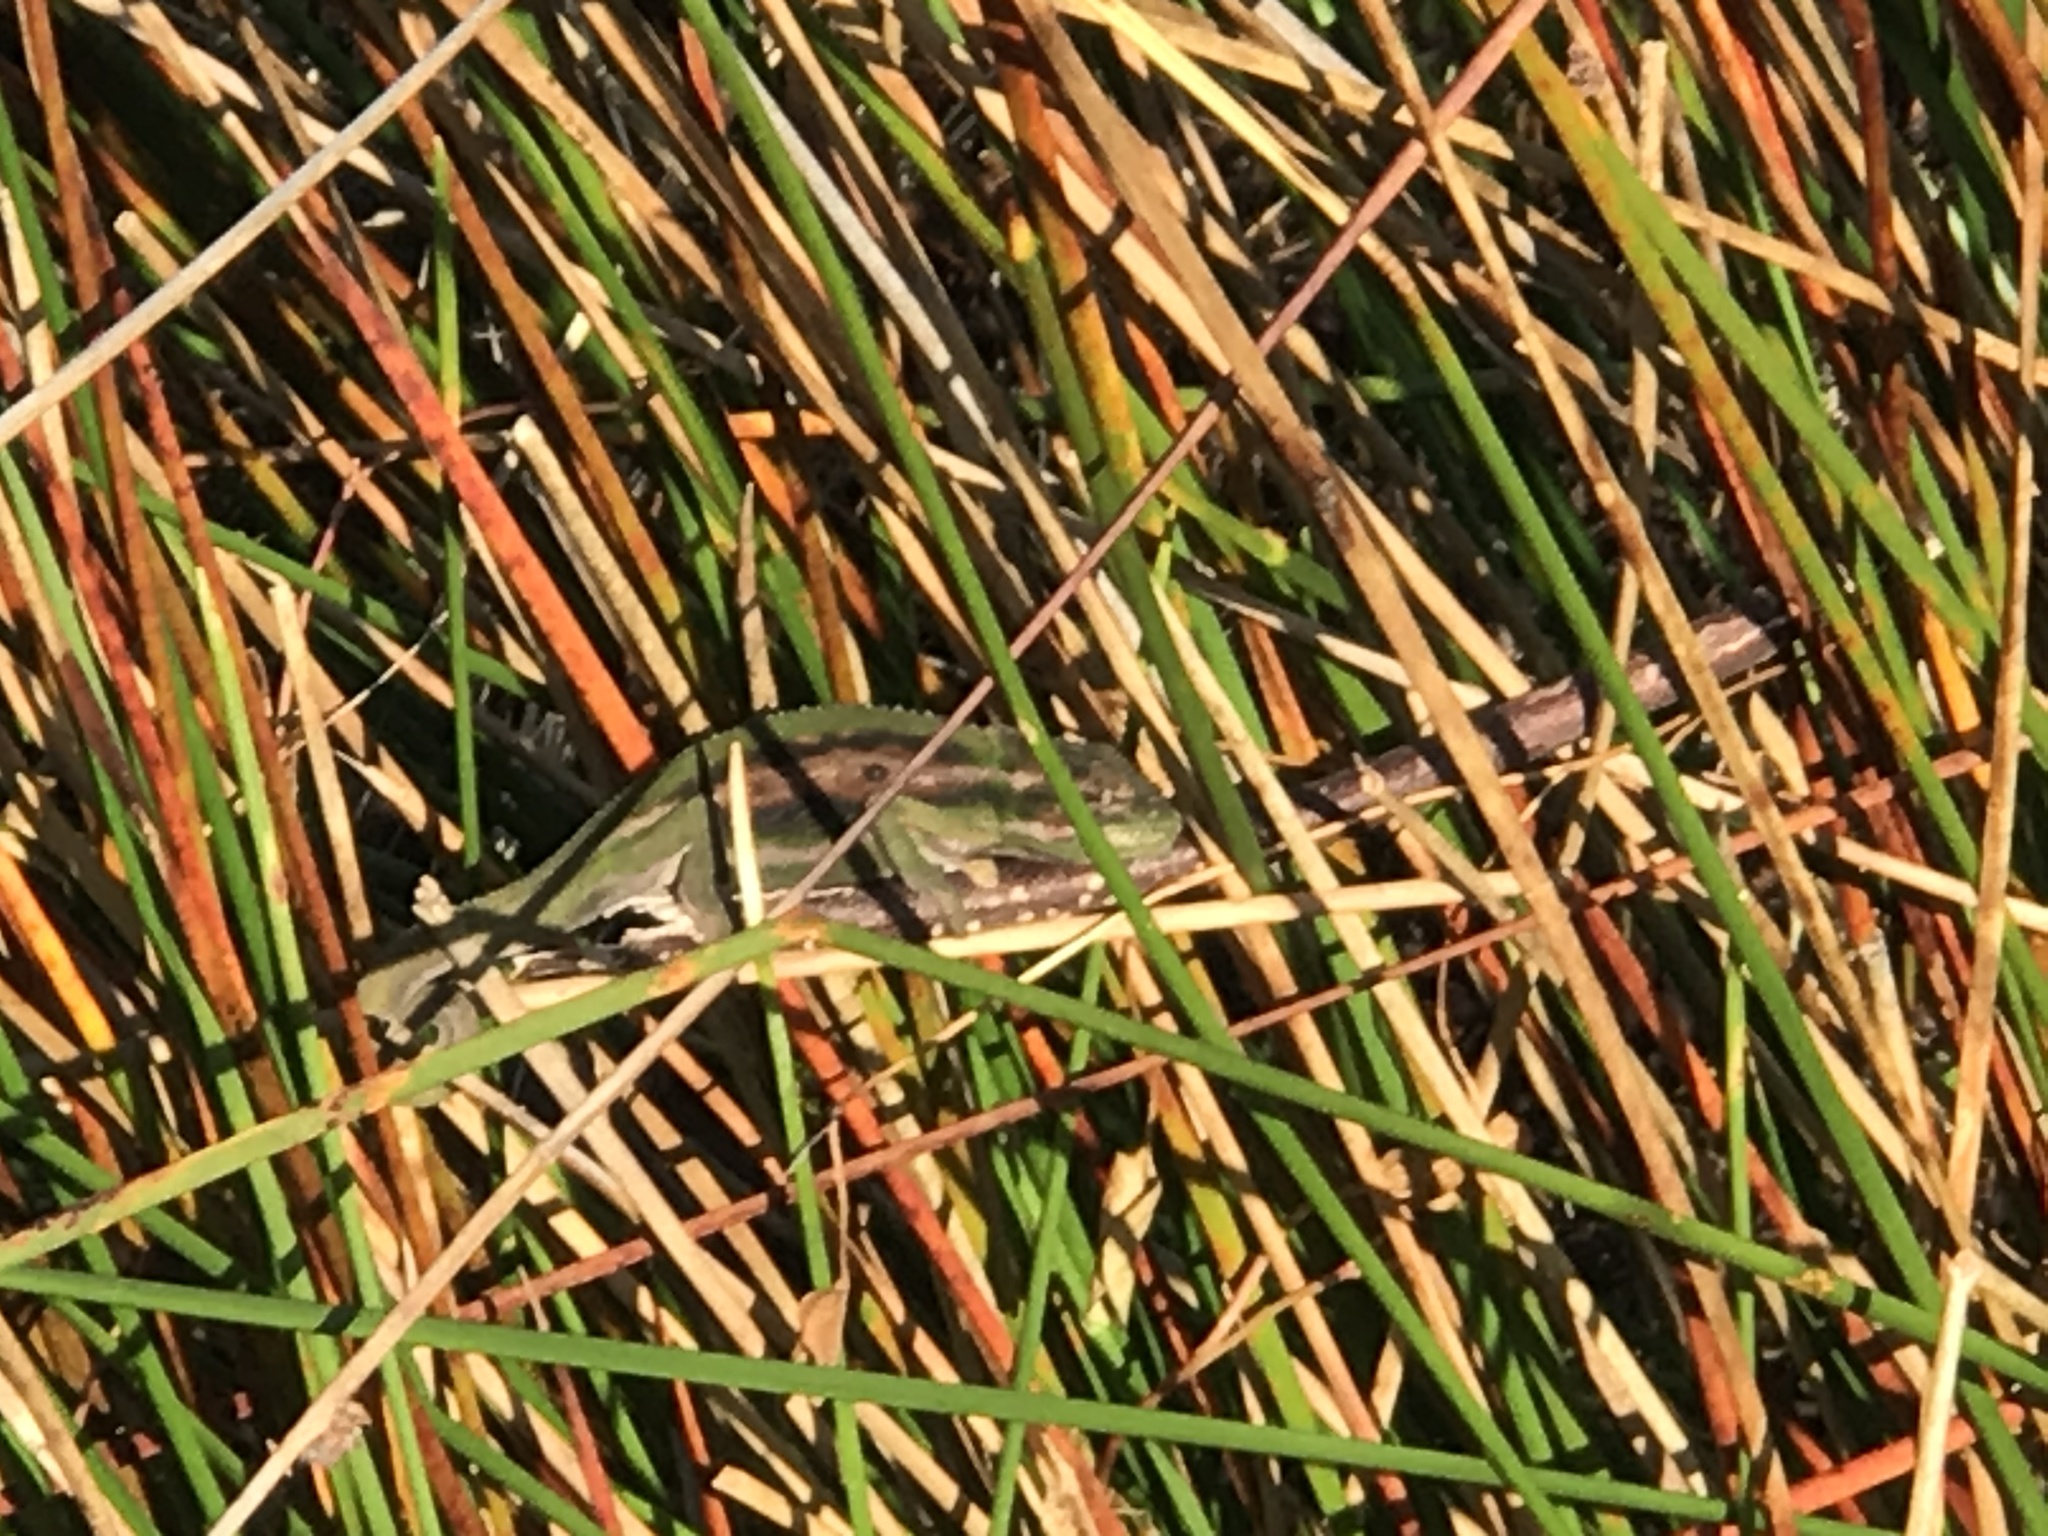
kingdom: Animalia
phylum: Chordata
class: Squamata
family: Chamaeleonidae
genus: Bradypodion
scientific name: Bradypodion pumilum
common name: Cape dwarf chameleon
